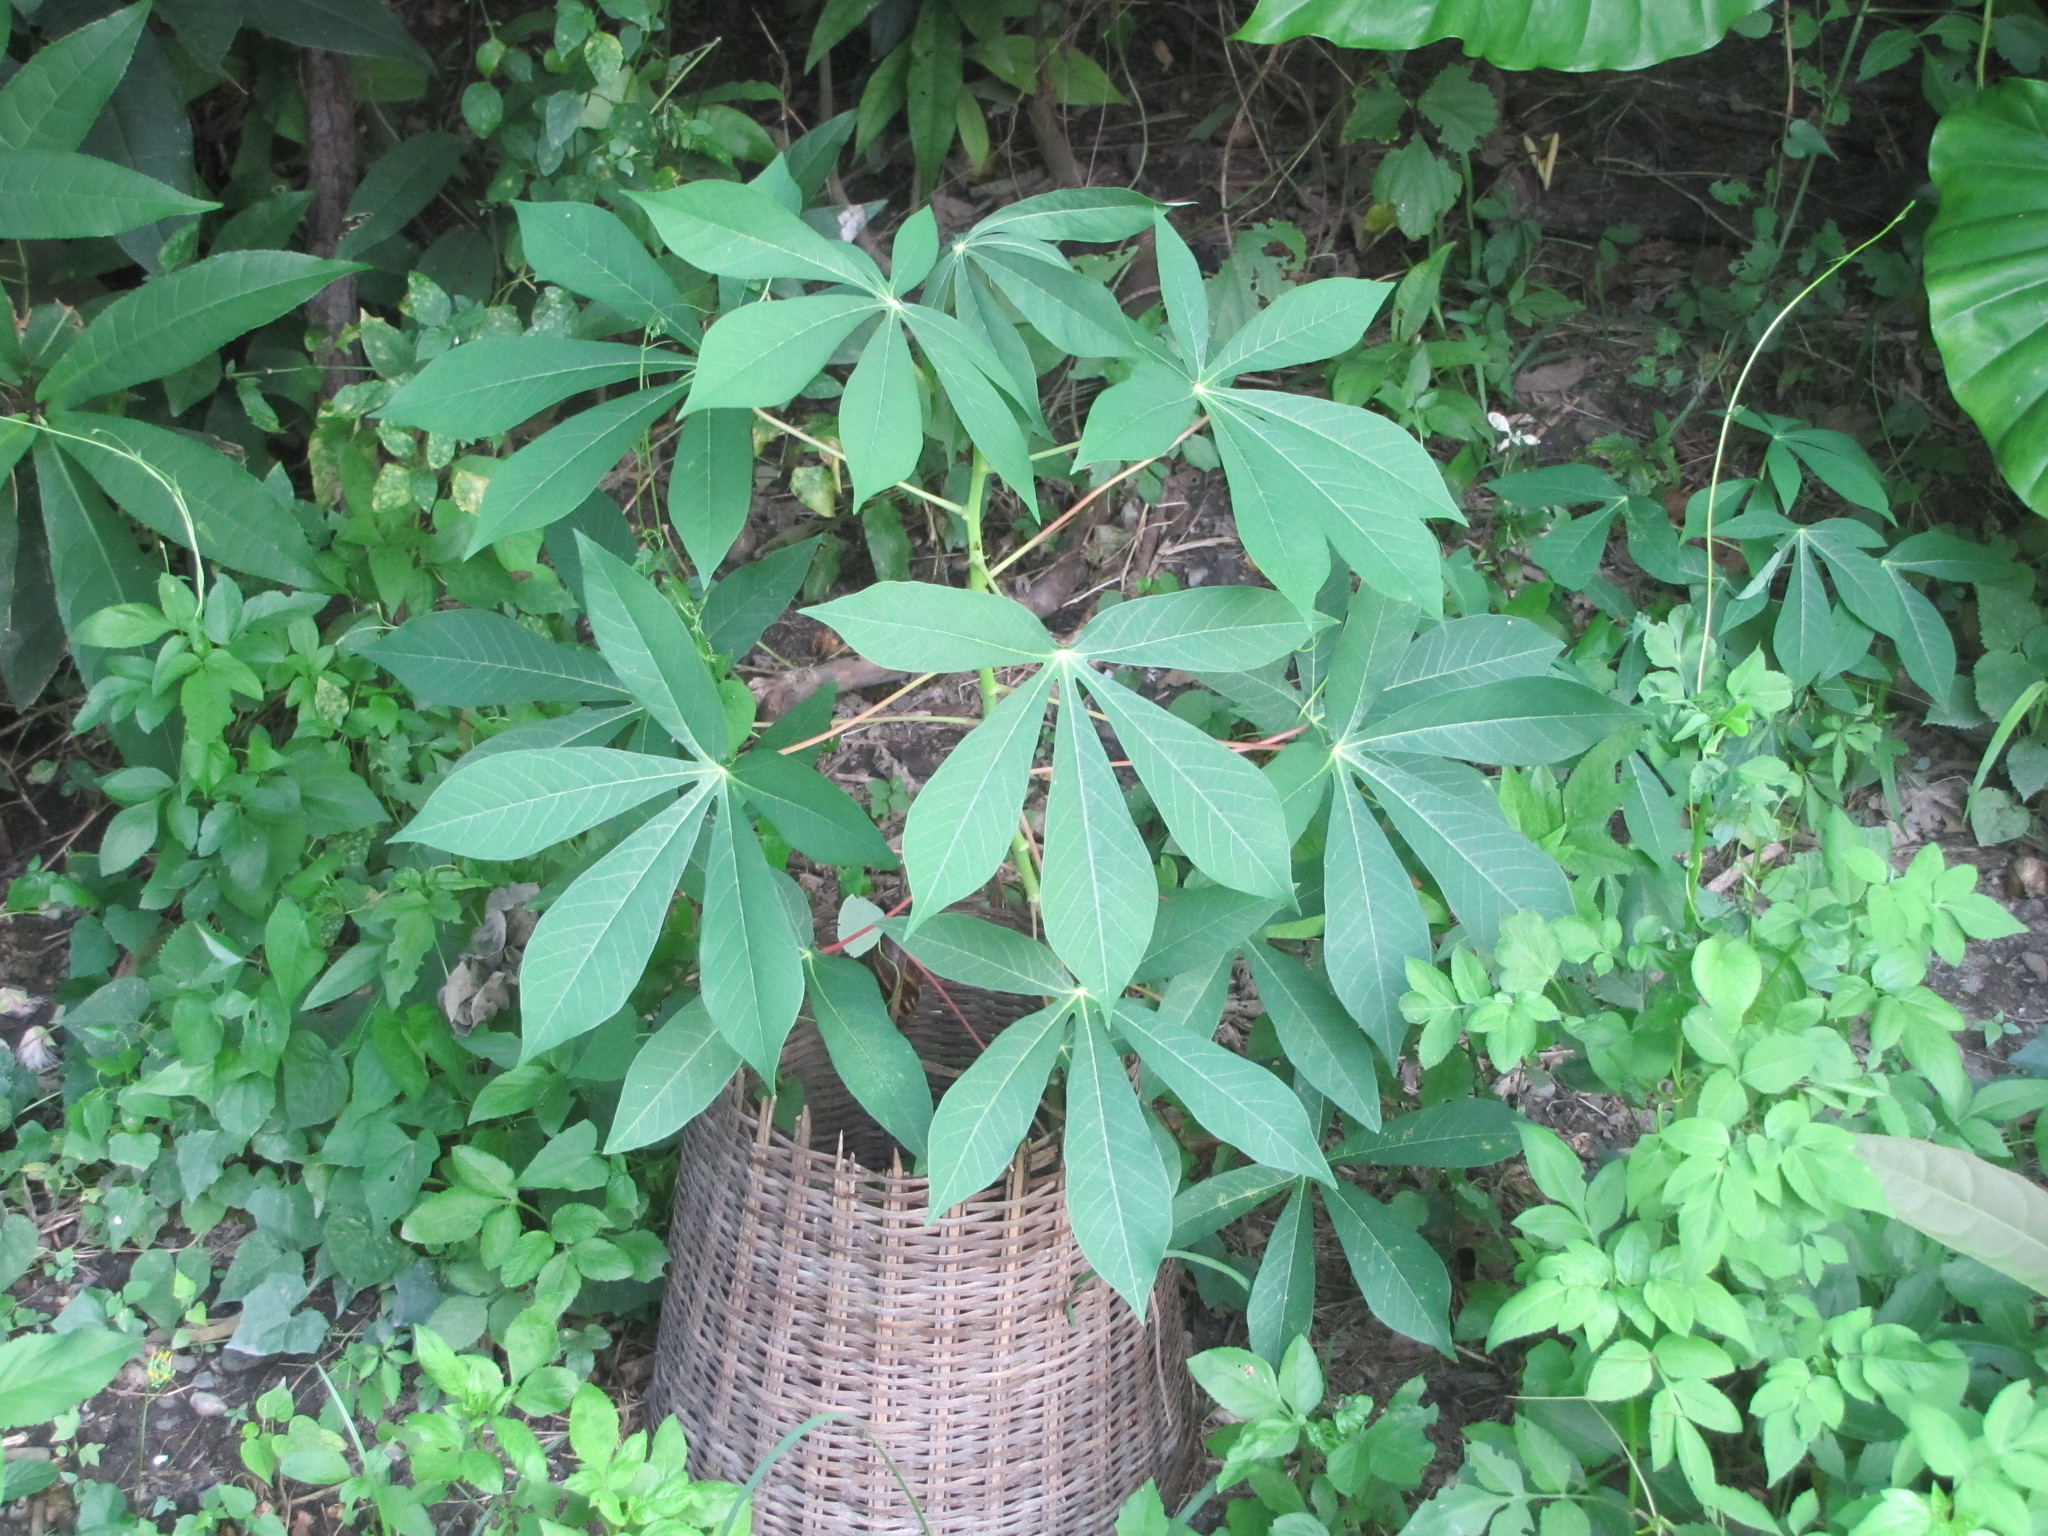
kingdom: Plantae
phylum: Tracheophyta
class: Magnoliopsida
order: Malpighiales
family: Euphorbiaceae
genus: Manihot
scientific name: Manihot esculenta
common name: Cassava
